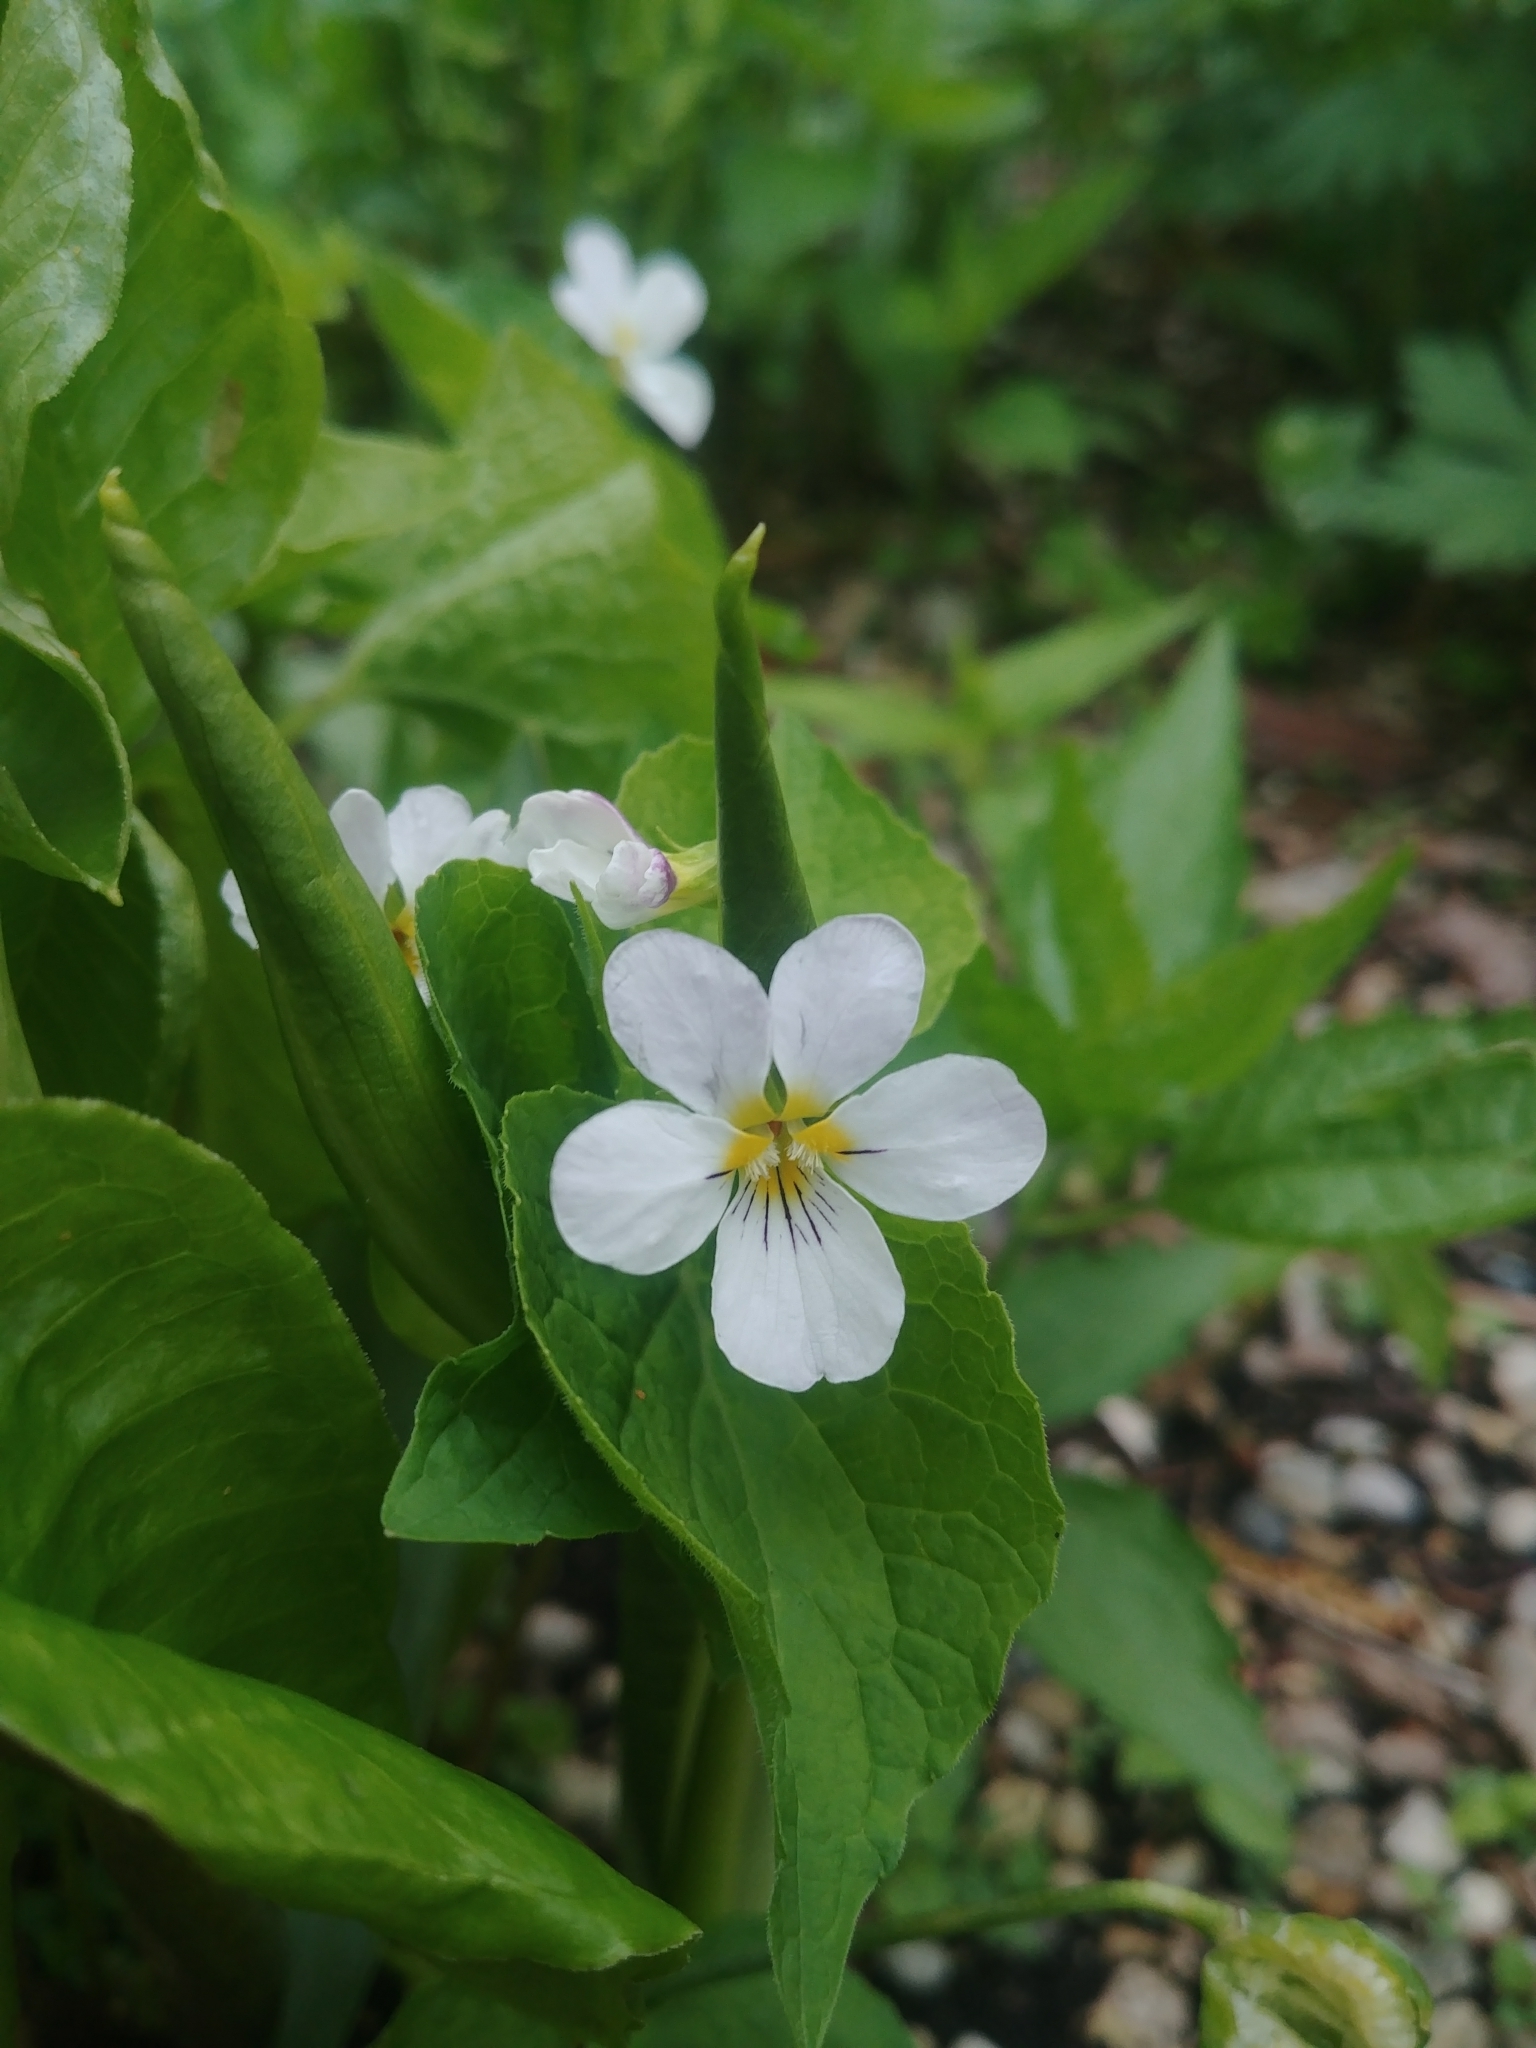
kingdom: Plantae
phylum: Tracheophyta
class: Magnoliopsida
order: Malpighiales
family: Violaceae
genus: Viola
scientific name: Viola canadensis
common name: Canada violet
